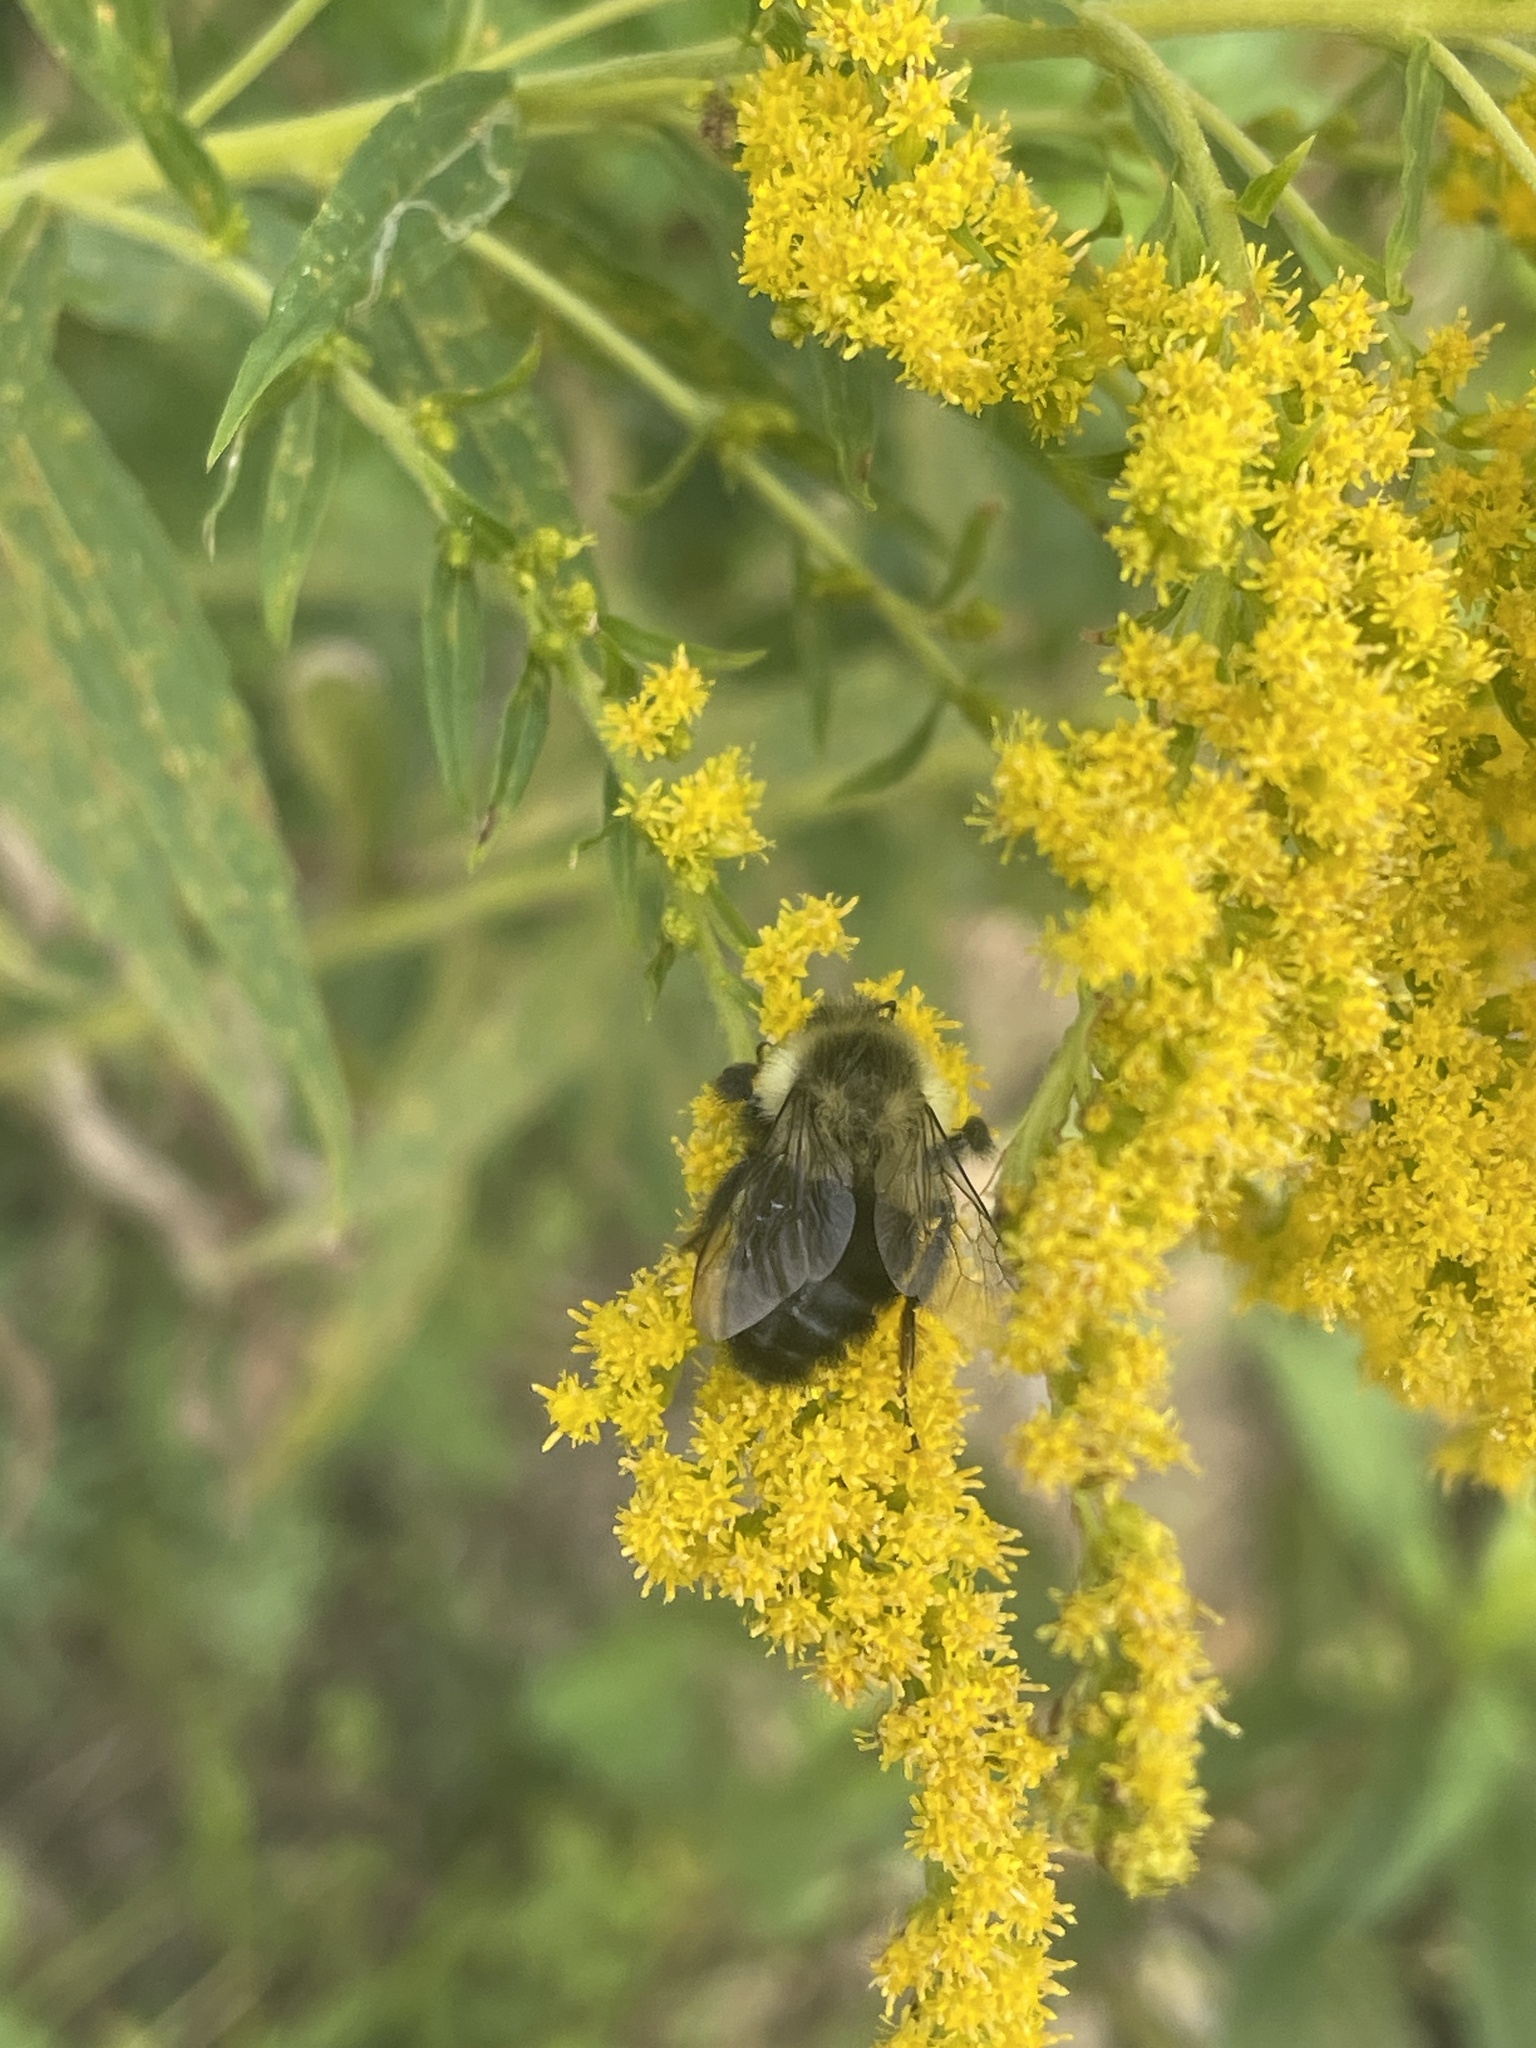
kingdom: Animalia
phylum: Arthropoda
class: Insecta
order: Hymenoptera
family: Apidae
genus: Bombus
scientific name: Bombus impatiens
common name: Common eastern bumble bee
